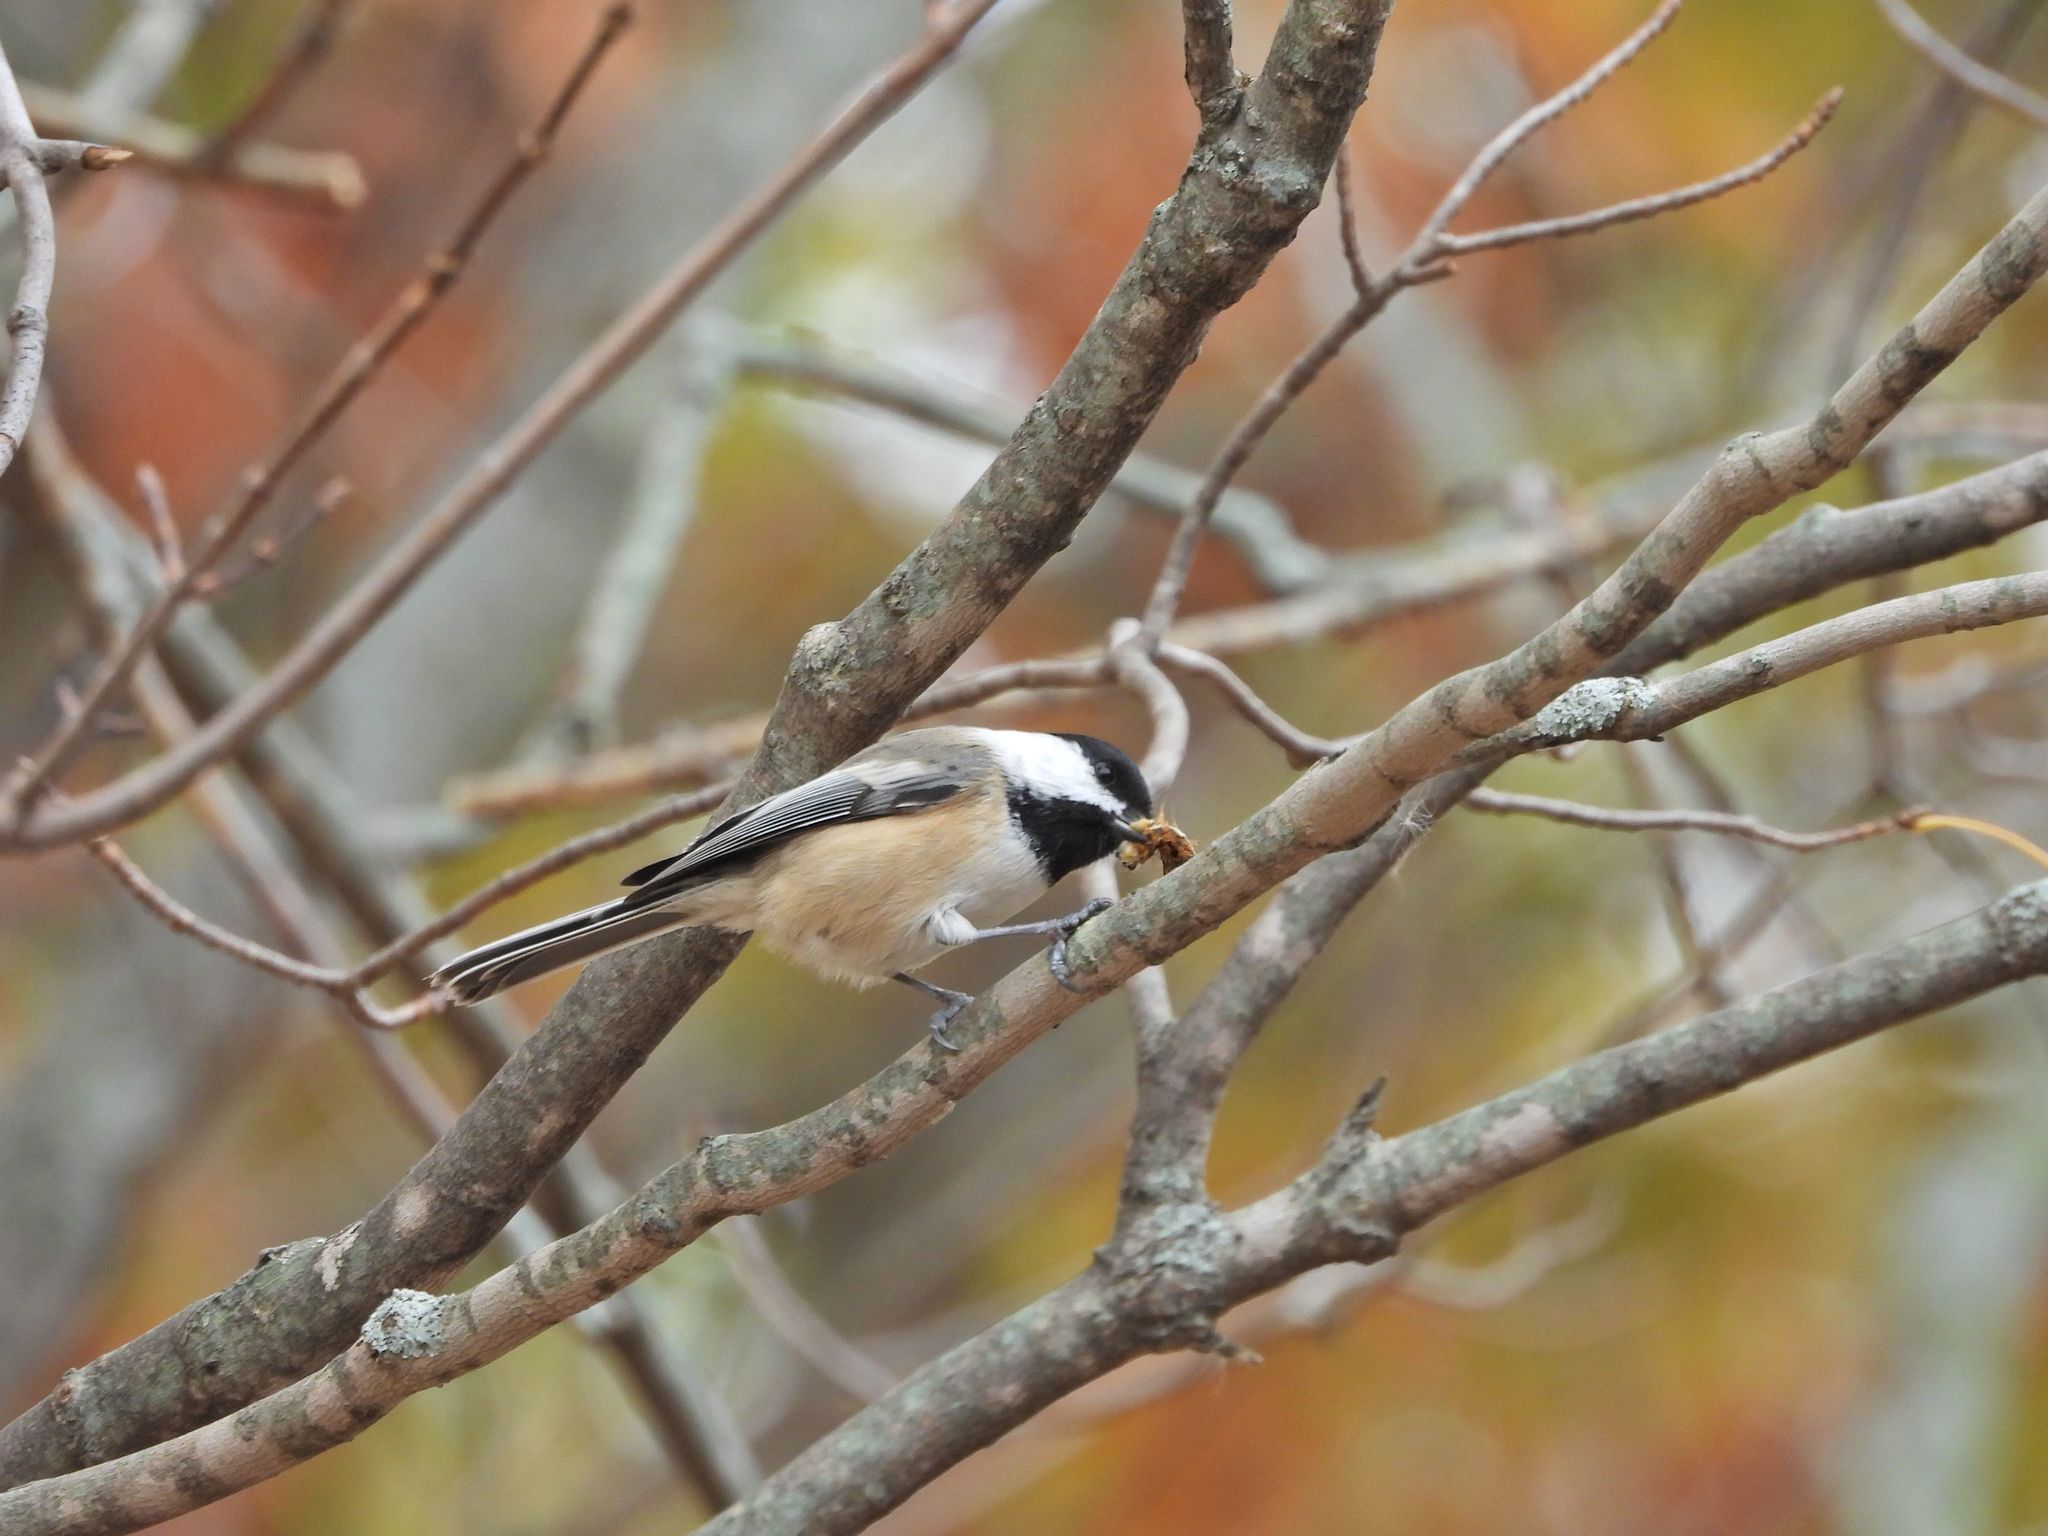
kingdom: Animalia
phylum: Chordata
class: Aves
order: Passeriformes
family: Paridae
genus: Poecile
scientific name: Poecile atricapillus
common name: Black-capped chickadee
